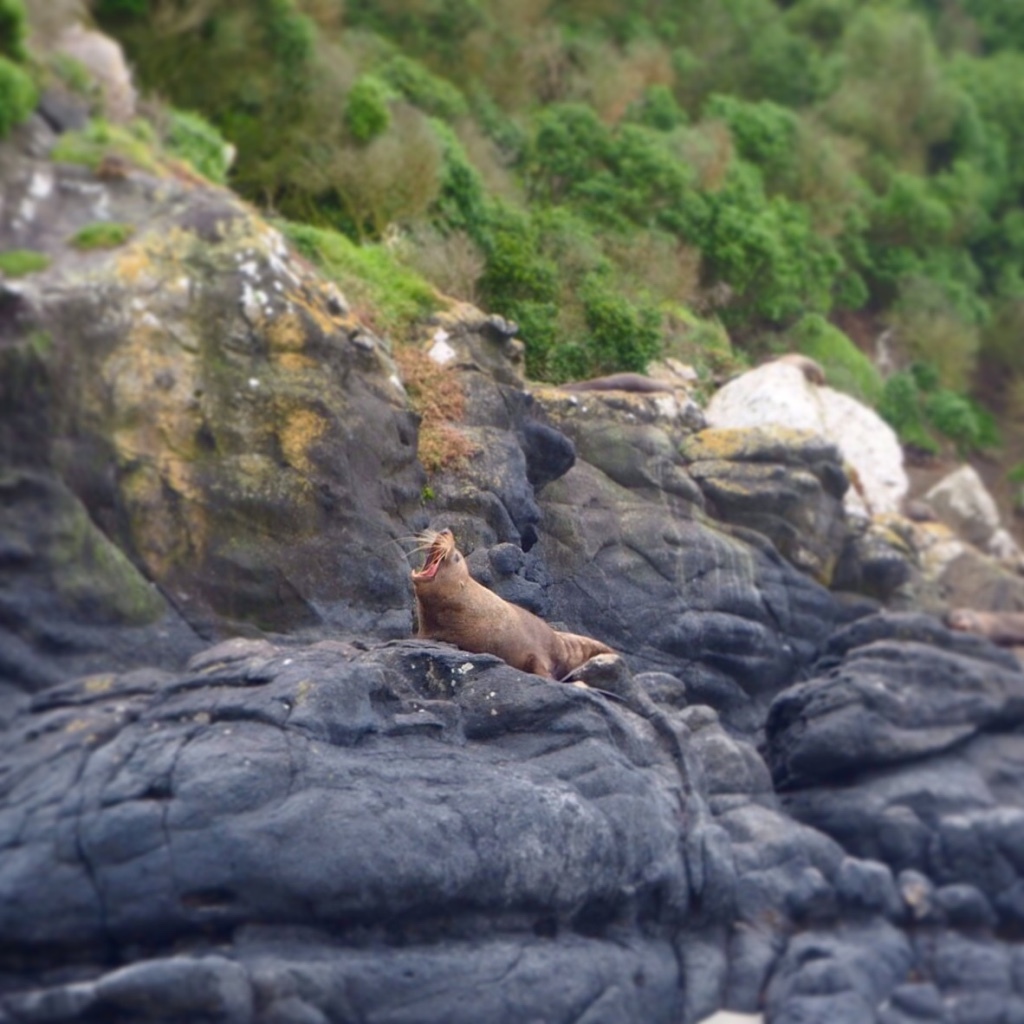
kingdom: Animalia
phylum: Chordata
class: Mammalia
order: Carnivora
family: Otariidae
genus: Arctocephalus
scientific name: Arctocephalus forsteri
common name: New zealand fur seal
